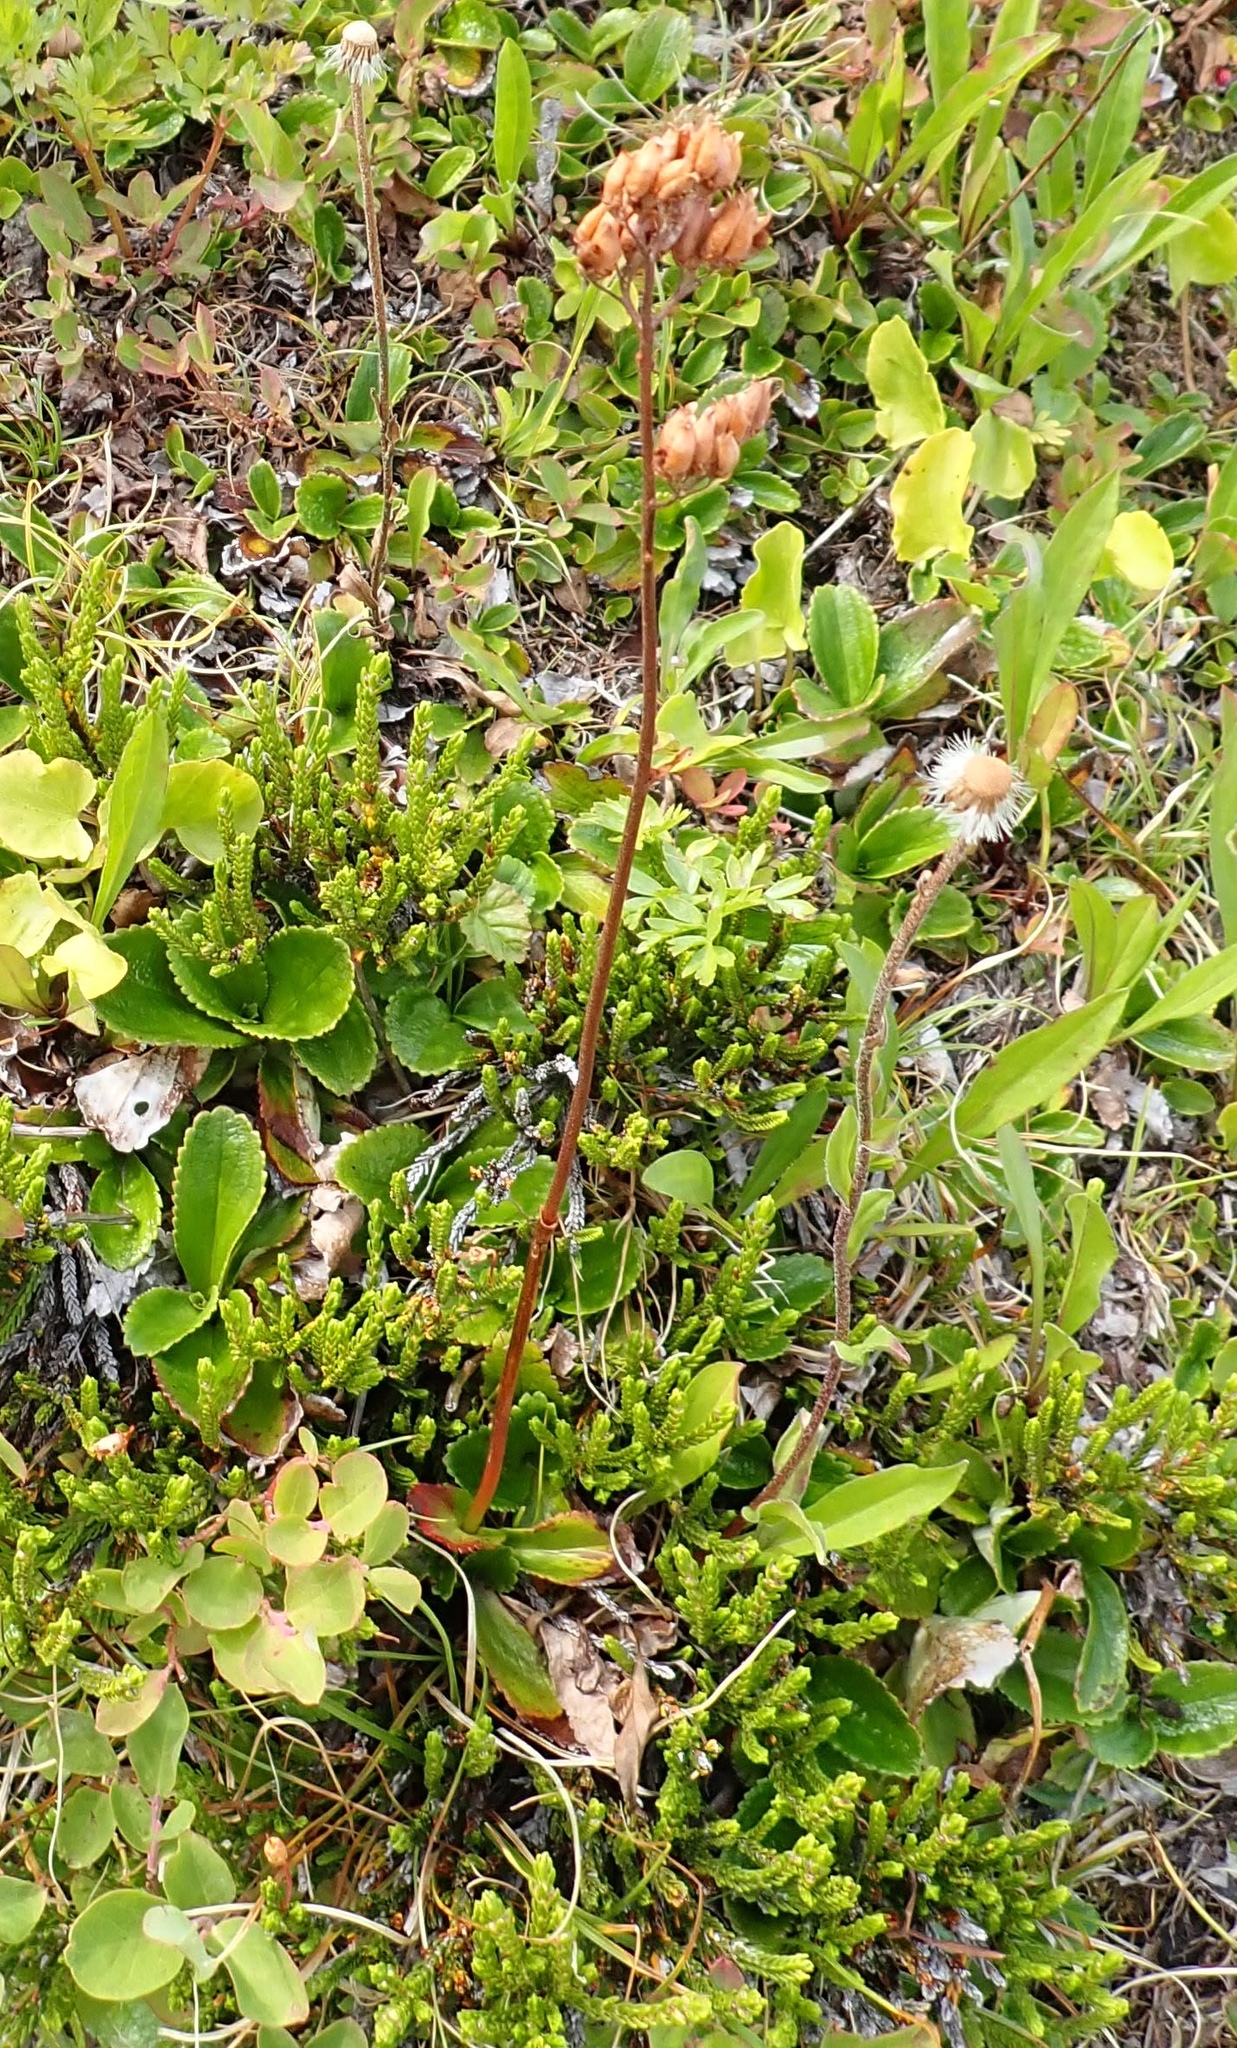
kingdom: Plantae
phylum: Tracheophyta
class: Magnoliopsida
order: Saxifragales
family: Saxifragaceae
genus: Leptarrhena
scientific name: Leptarrhena pyrolifolia
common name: Leatherleaf-saxifrage
